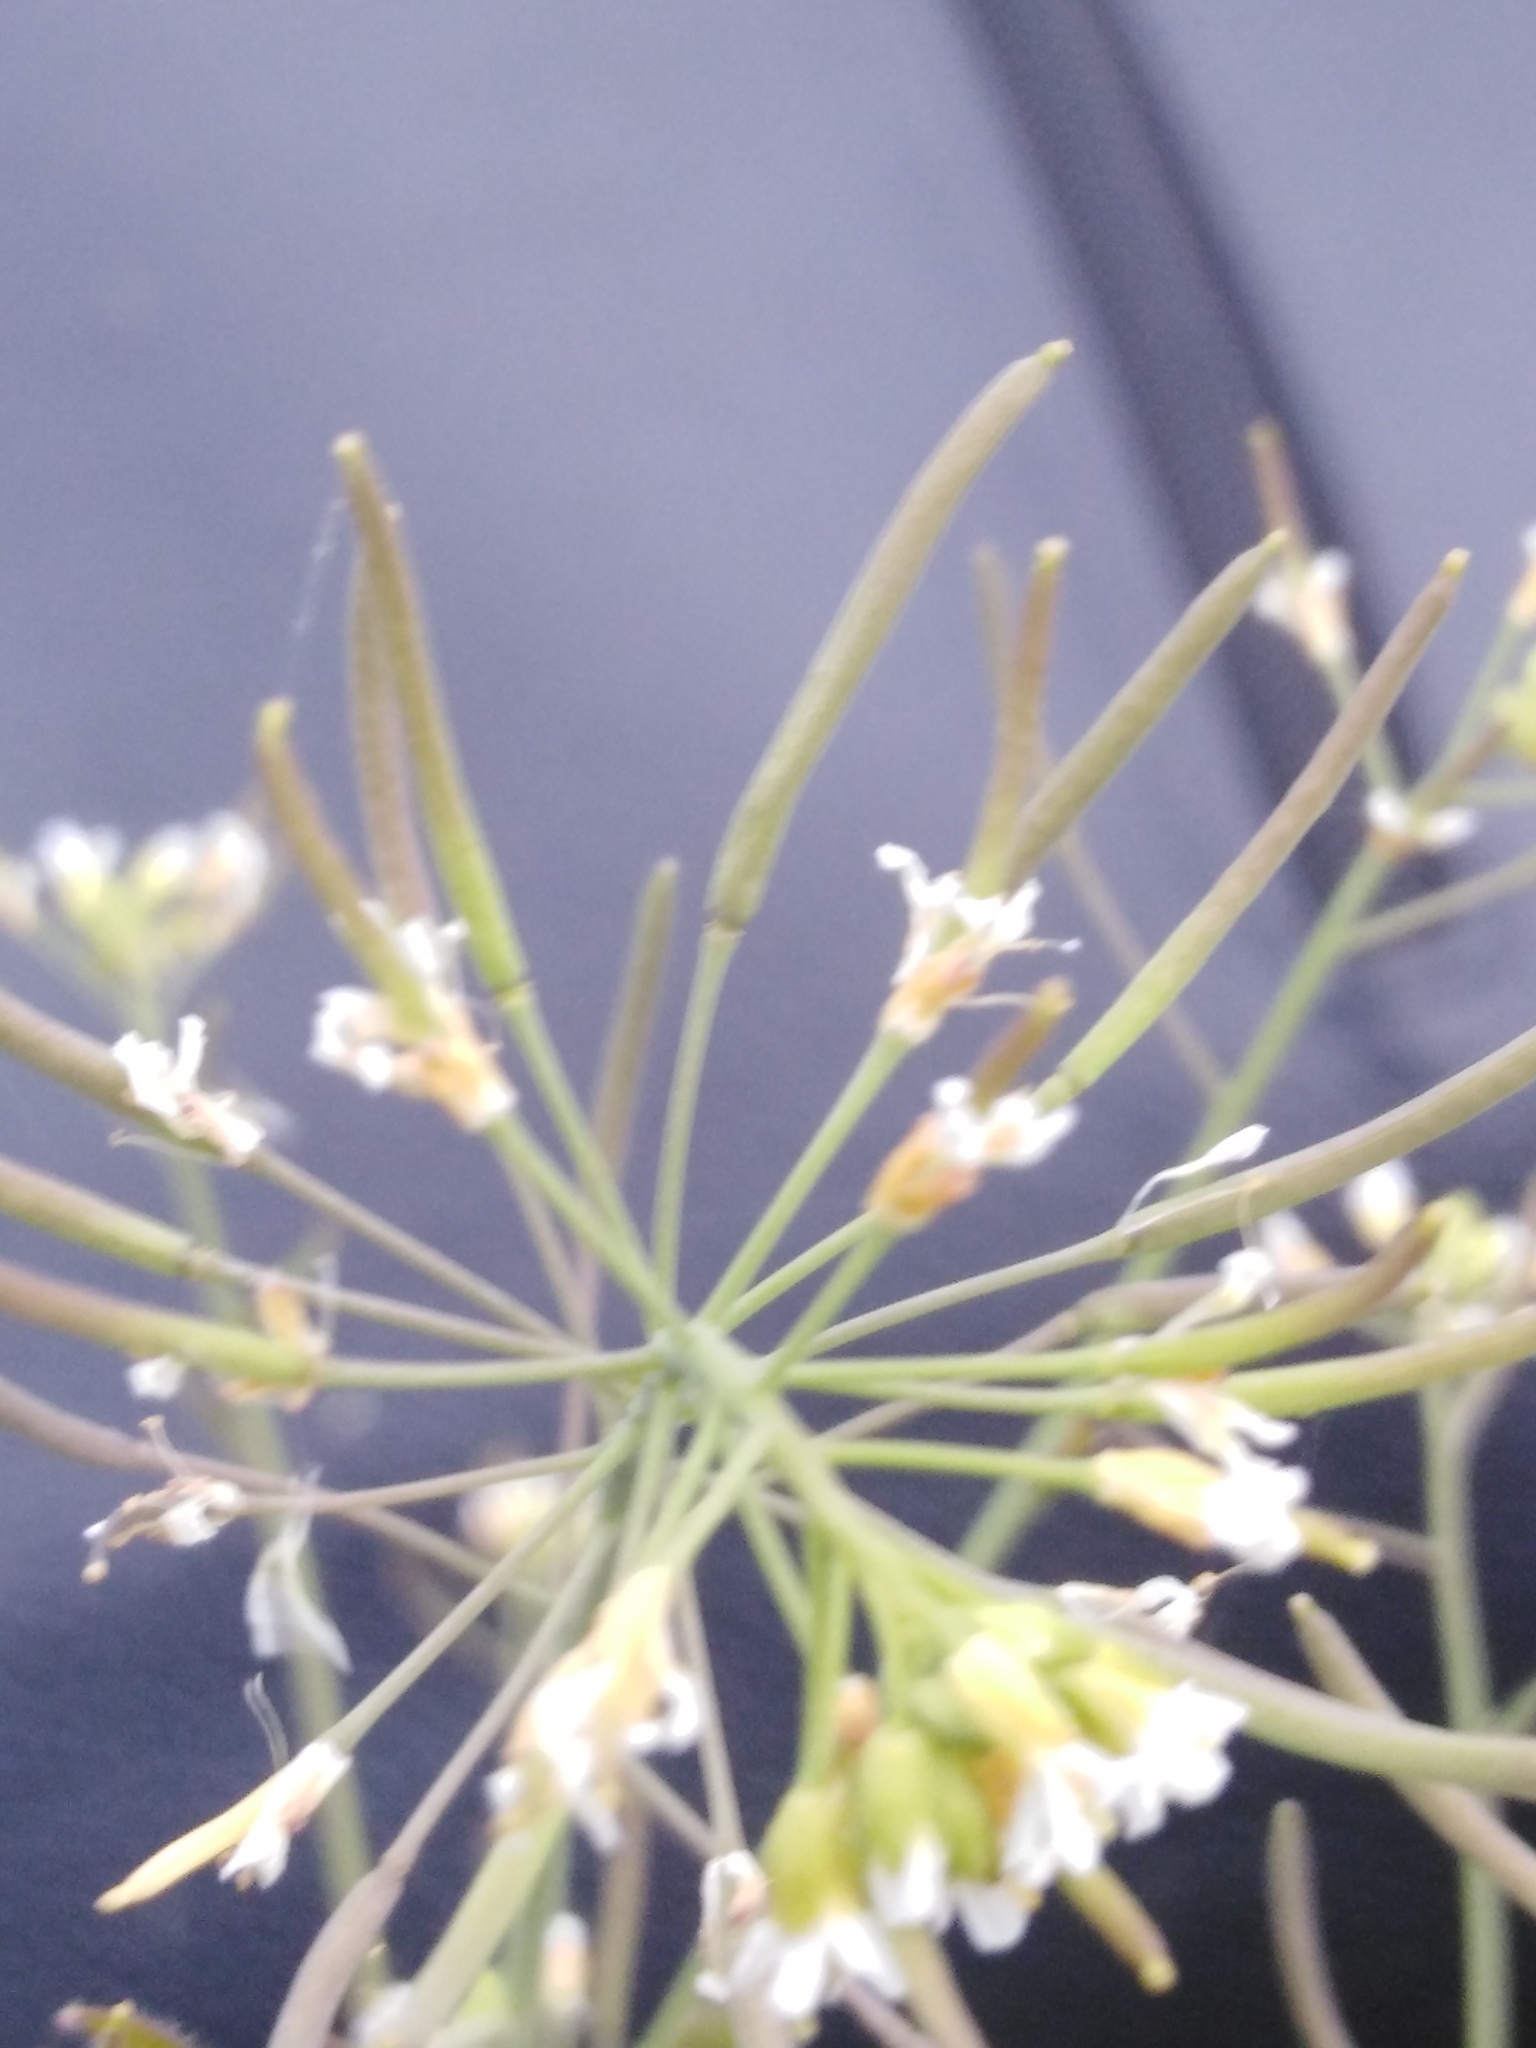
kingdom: Plantae
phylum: Tracheophyta
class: Magnoliopsida
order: Brassicales
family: Brassicaceae
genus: Arabidopsis
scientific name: Arabidopsis thaliana
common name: Thale cress
